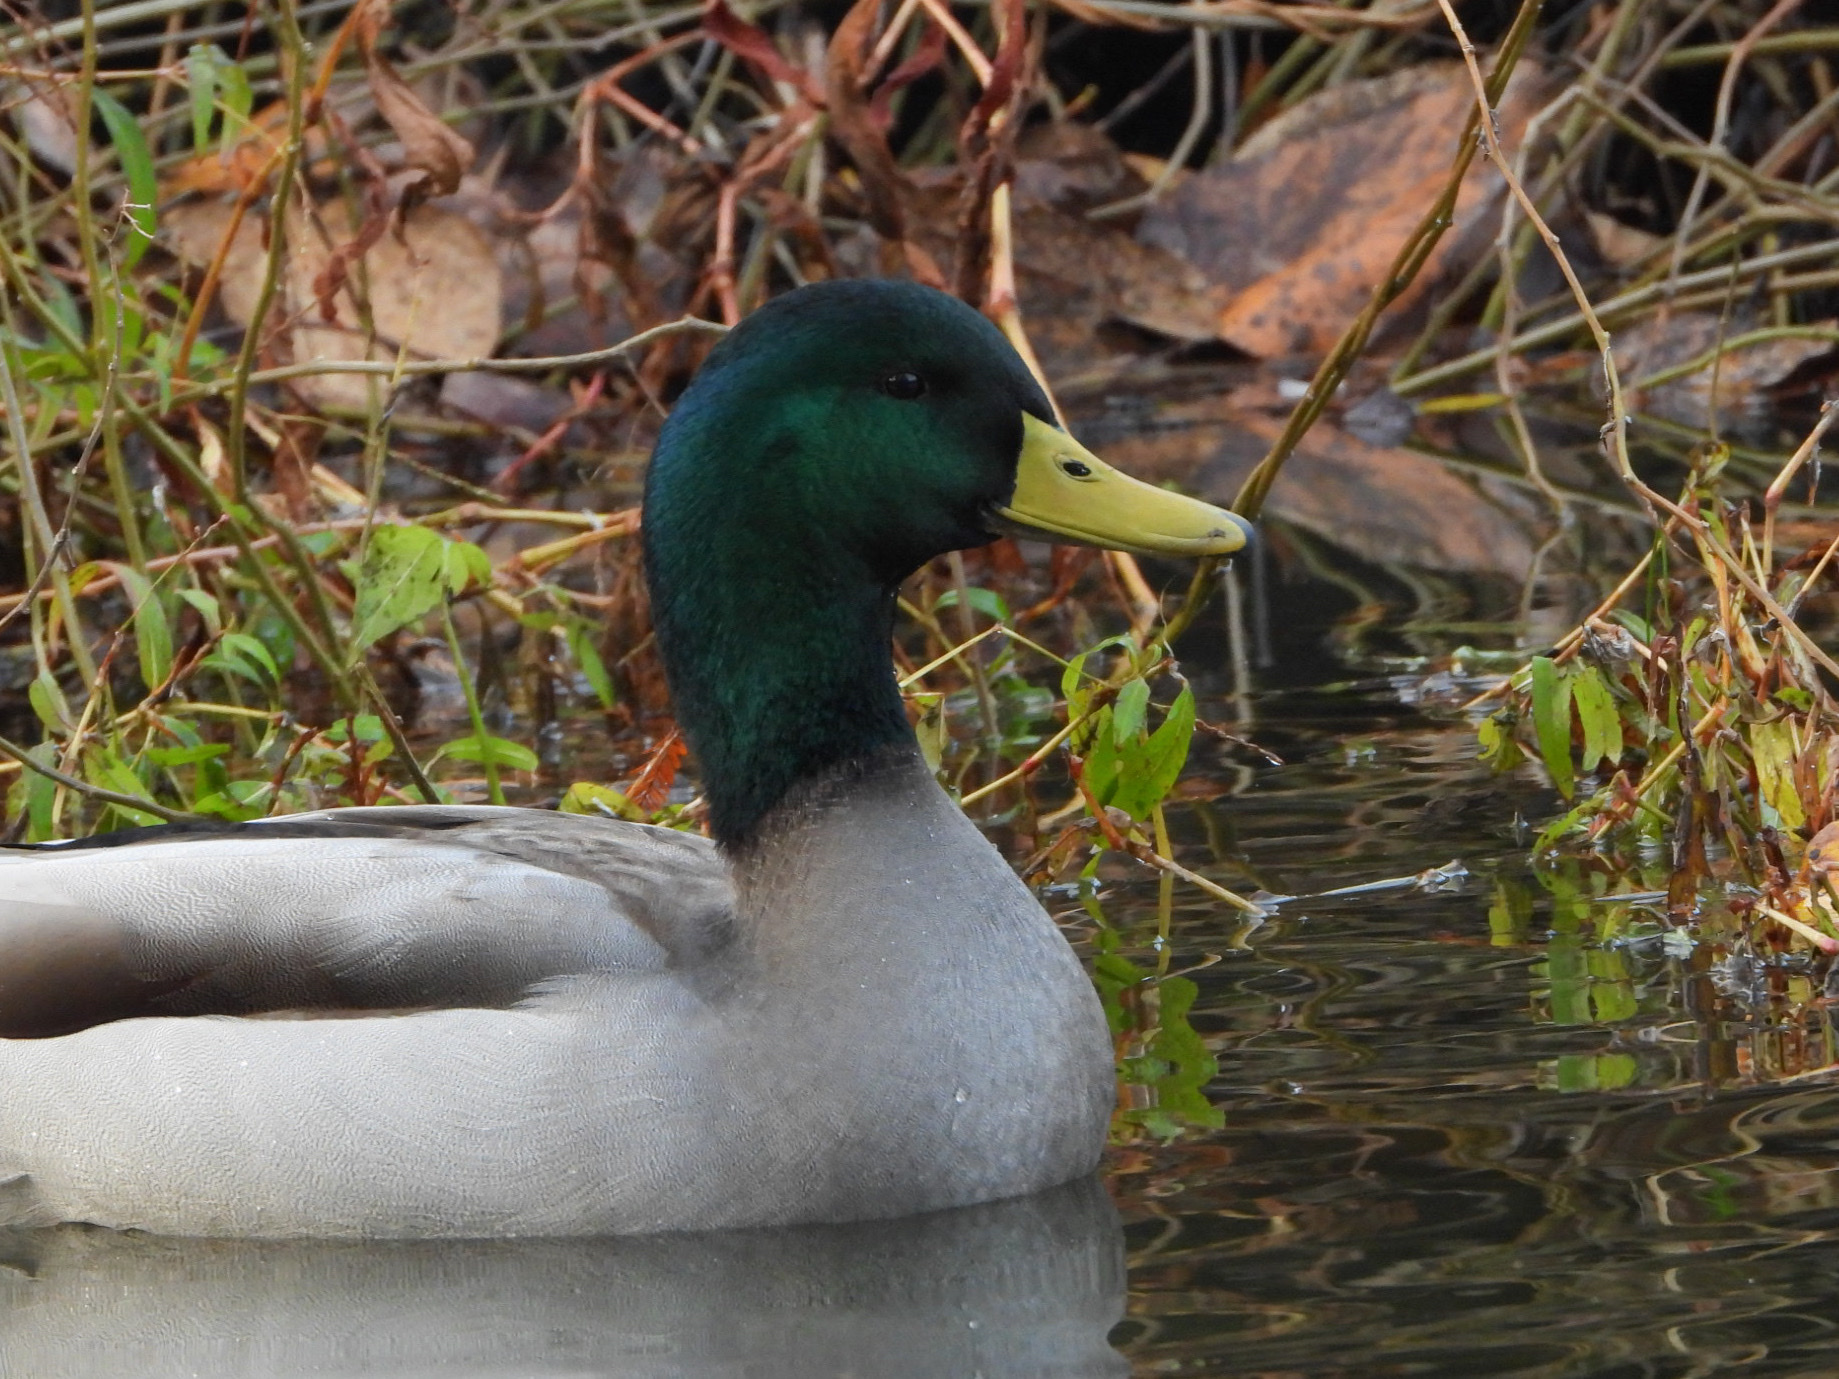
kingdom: Animalia
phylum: Chordata
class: Aves
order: Anseriformes
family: Anatidae
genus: Anas
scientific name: Anas platyrhynchos
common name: Mallard
